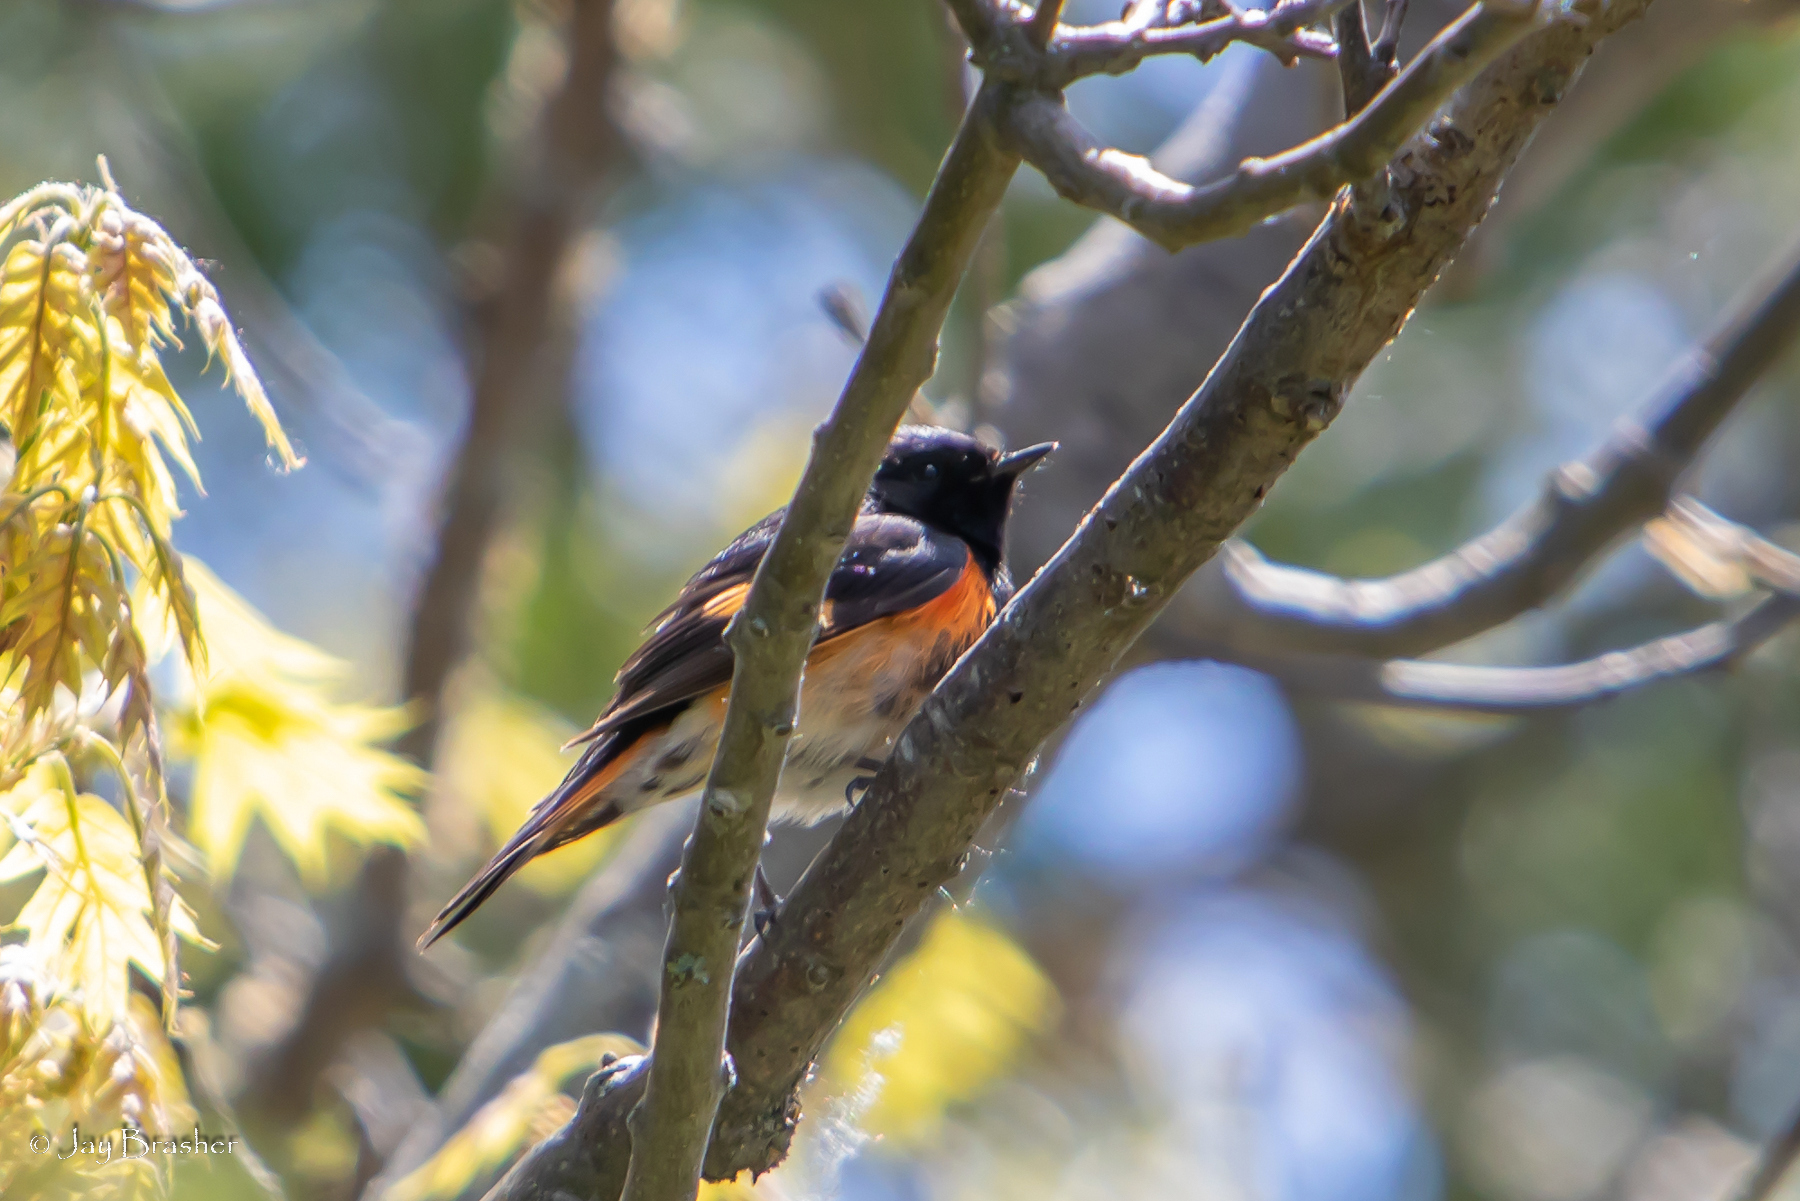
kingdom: Animalia
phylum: Chordata
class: Aves
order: Passeriformes
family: Parulidae
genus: Setophaga
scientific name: Setophaga ruticilla
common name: American redstart
